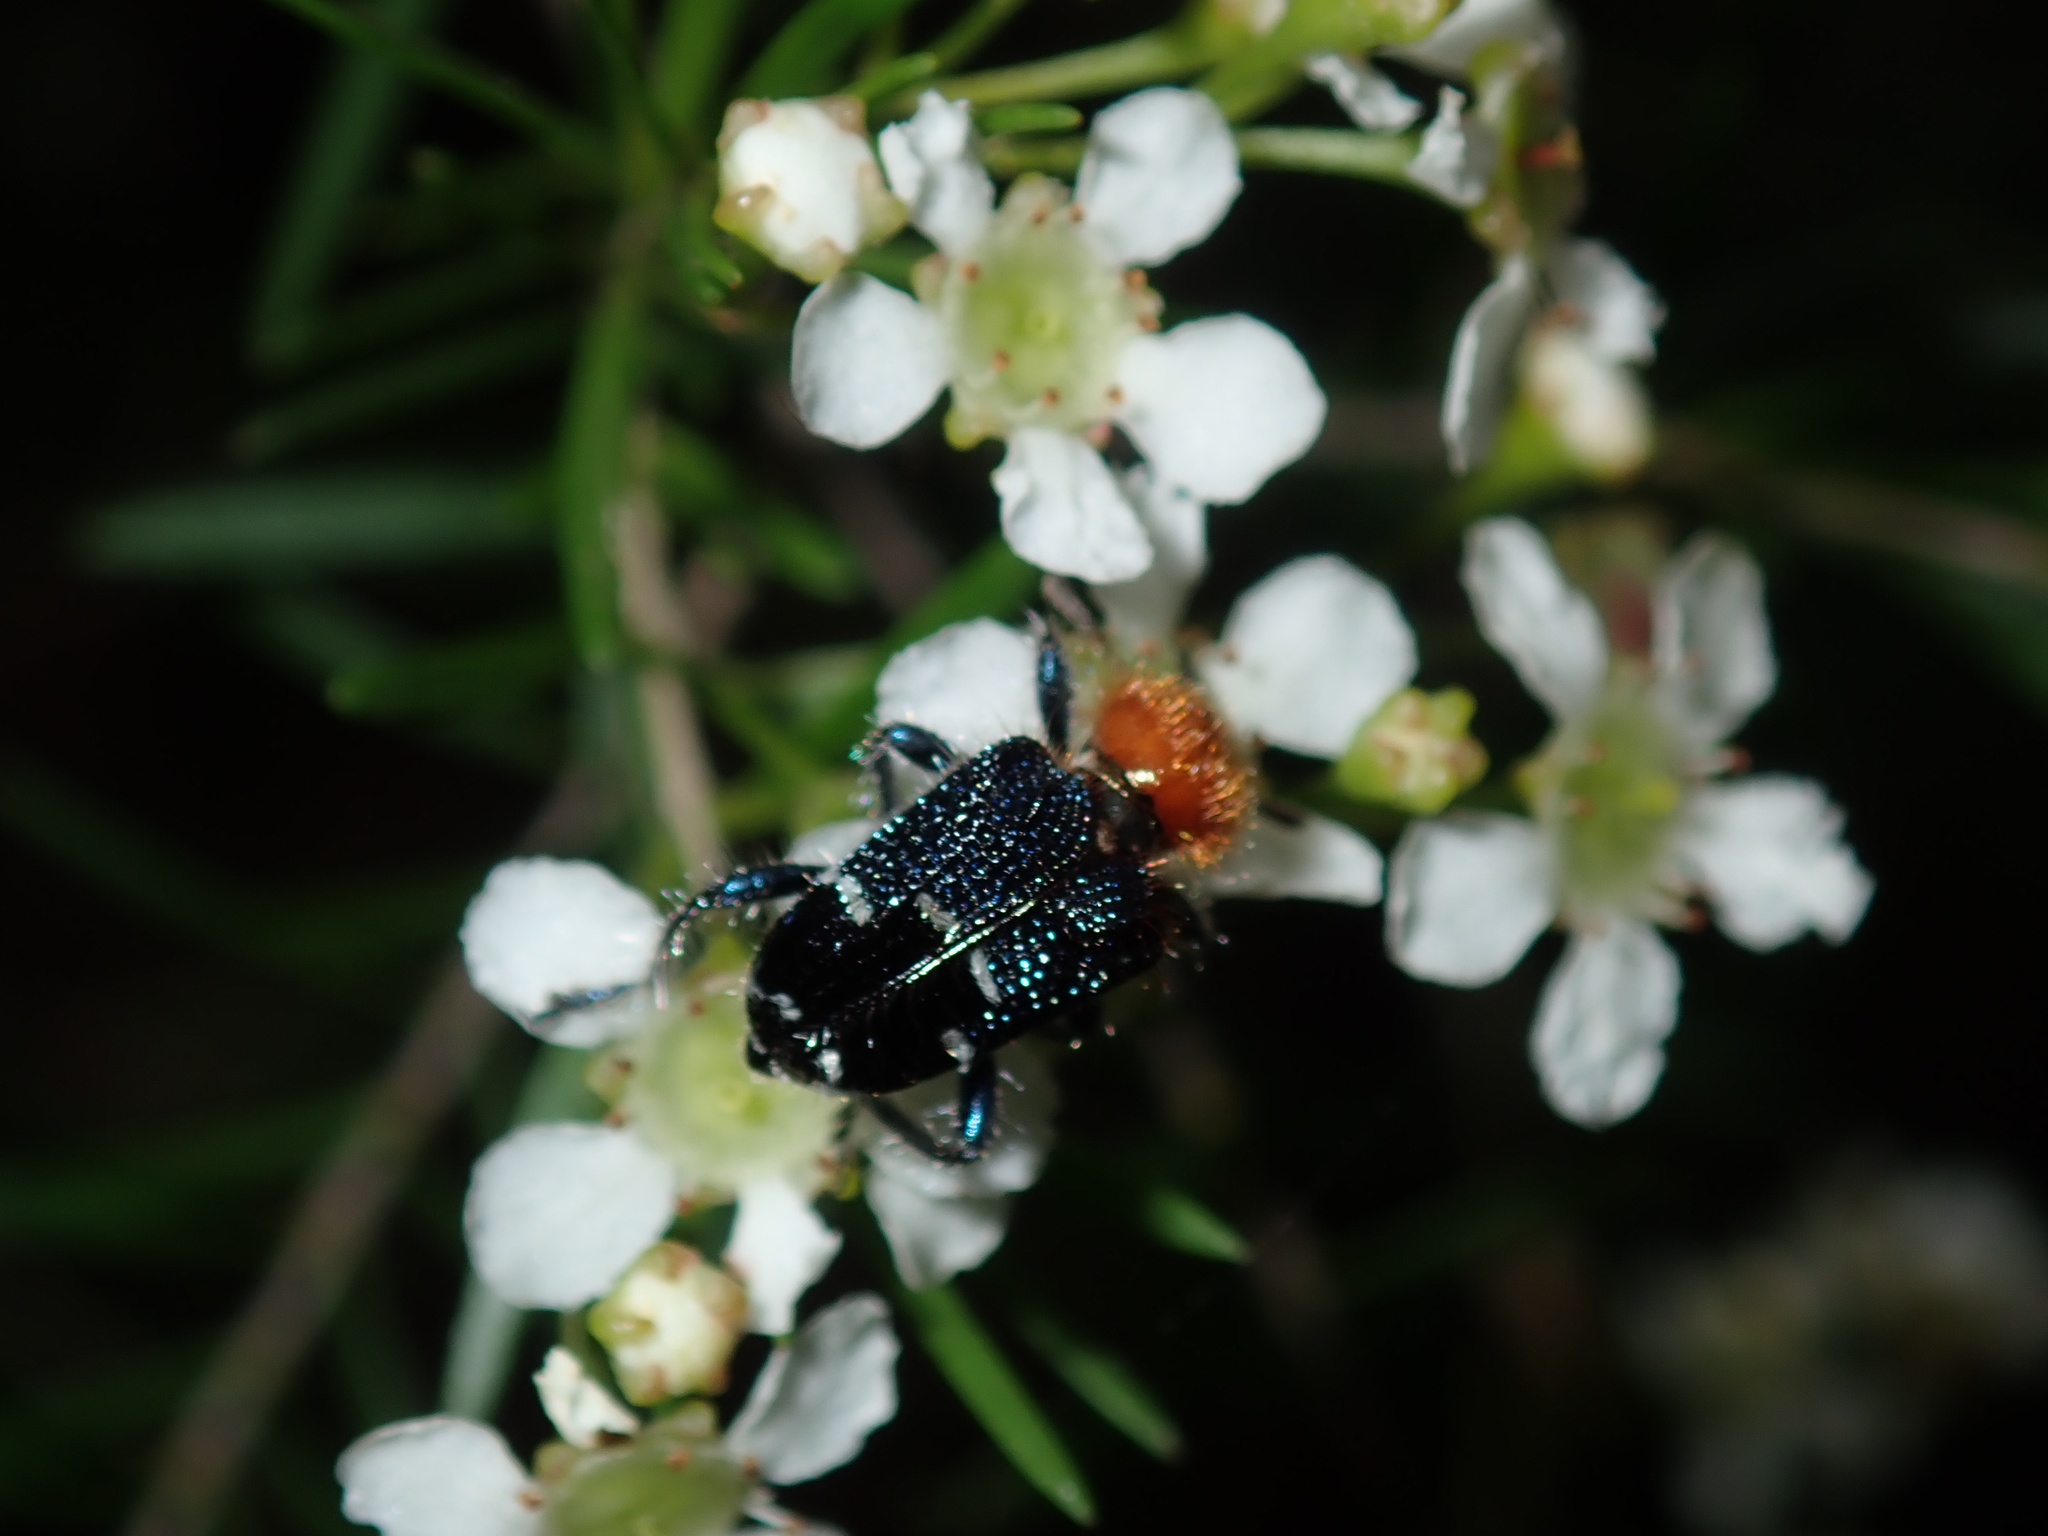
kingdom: Animalia
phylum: Arthropoda
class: Insecta
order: Coleoptera
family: Cleridae
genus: Zenithicola
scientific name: Zenithicola
